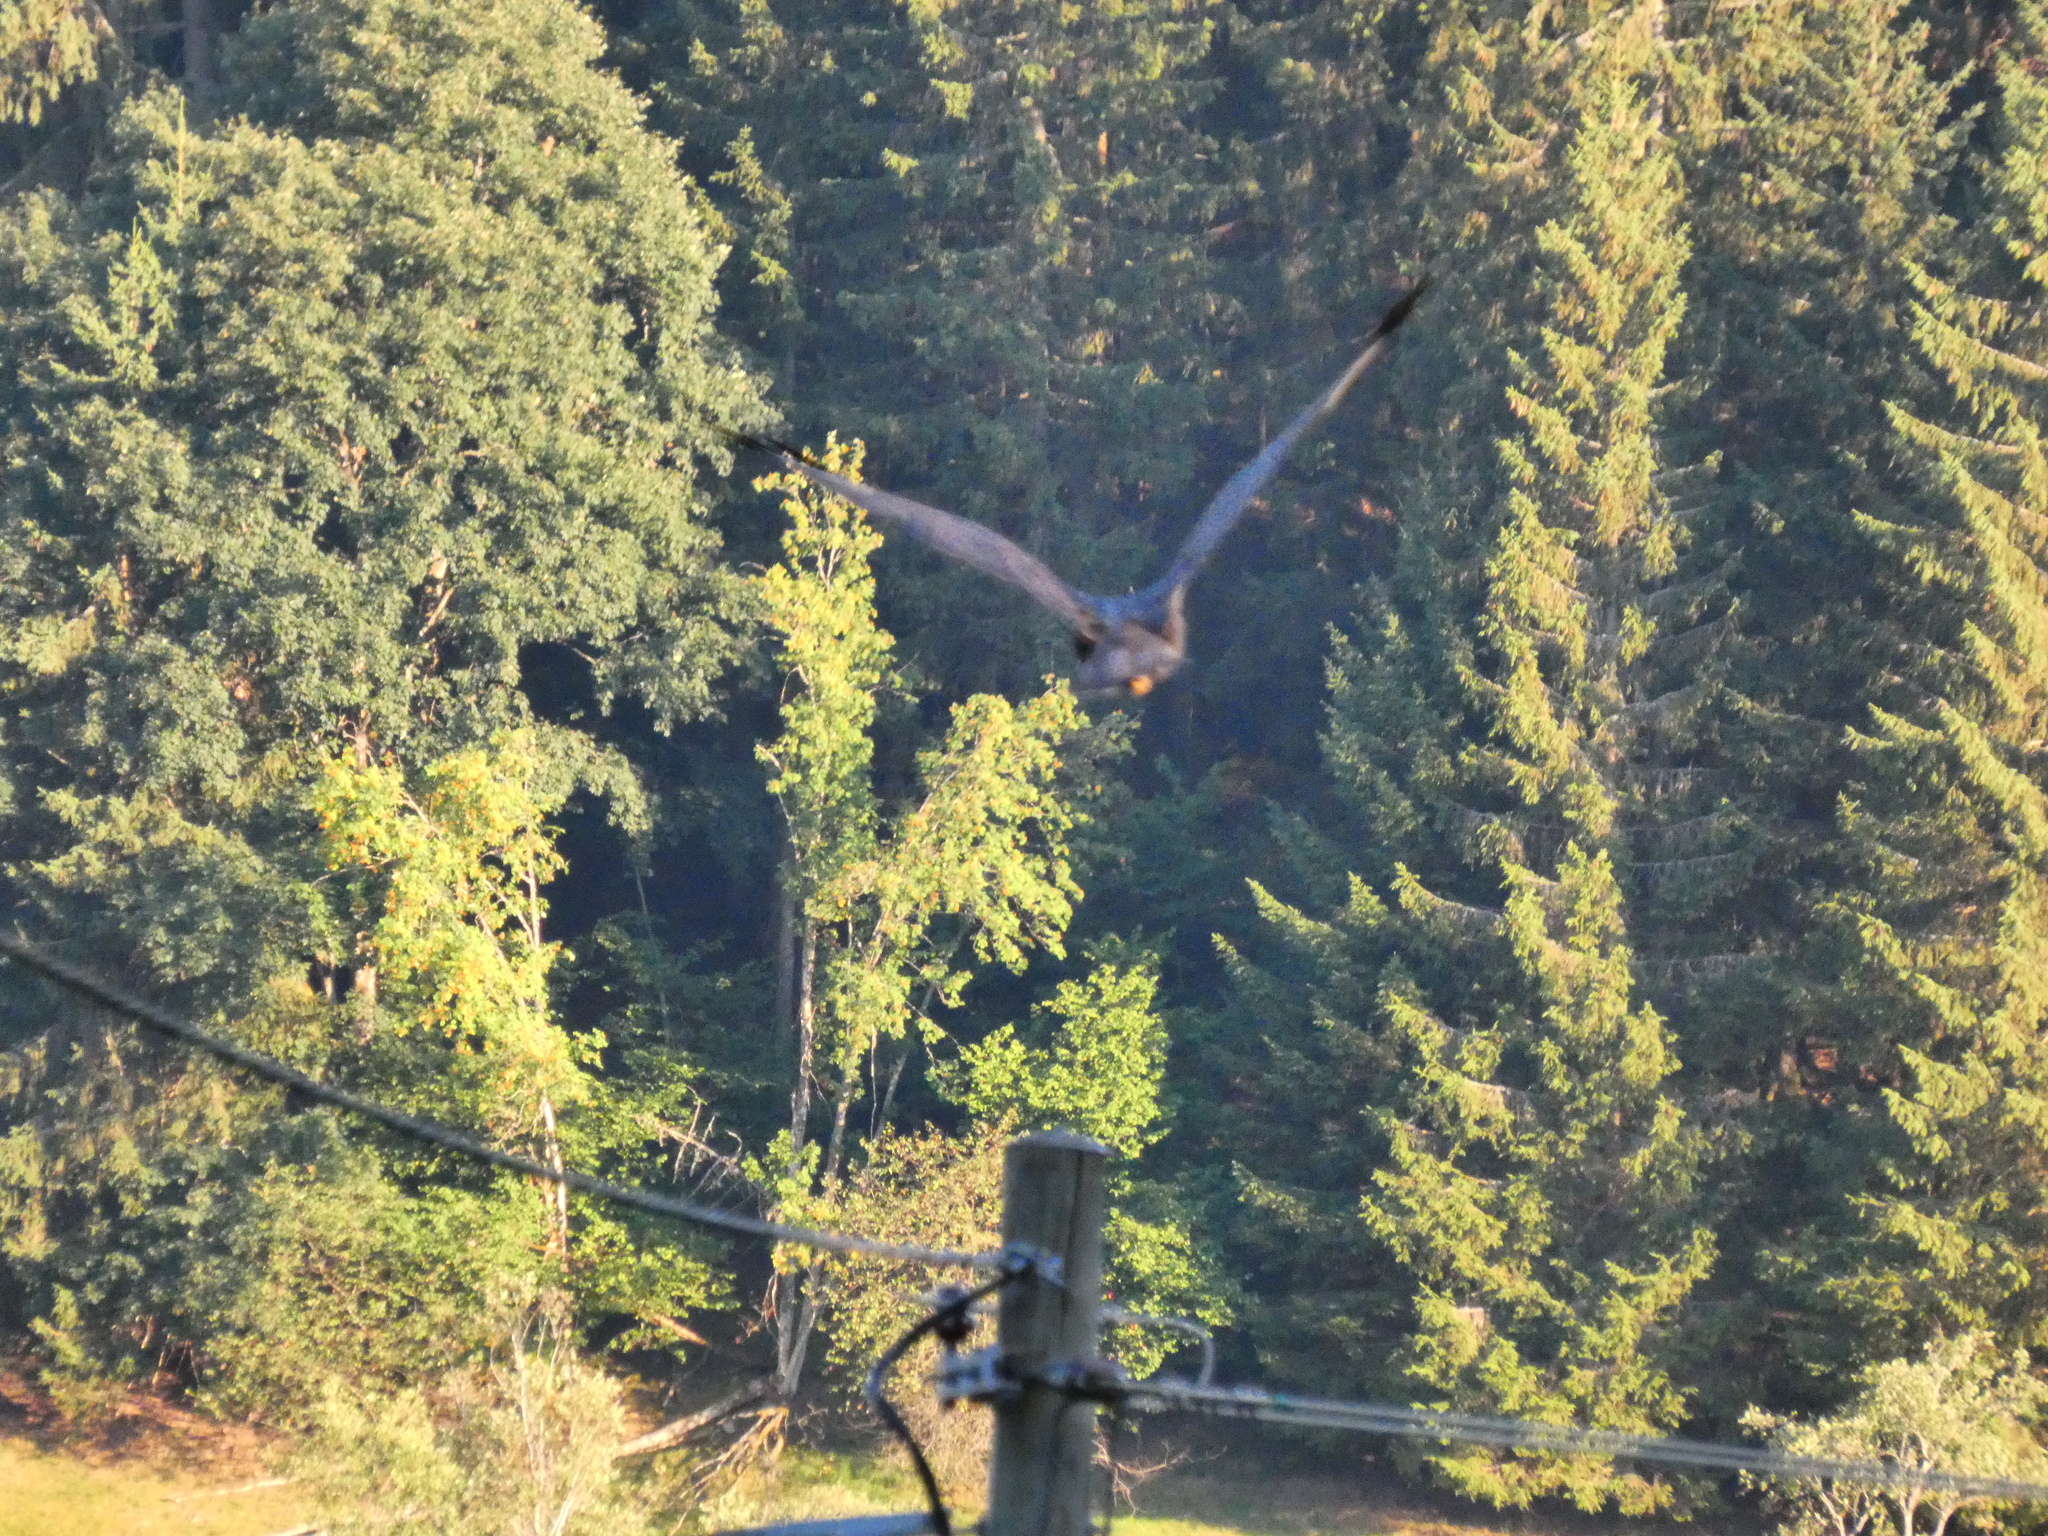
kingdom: Animalia
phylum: Chordata
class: Aves
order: Accipitriformes
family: Accipitridae
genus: Circus
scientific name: Circus aeruginosus
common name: Western marsh harrier
